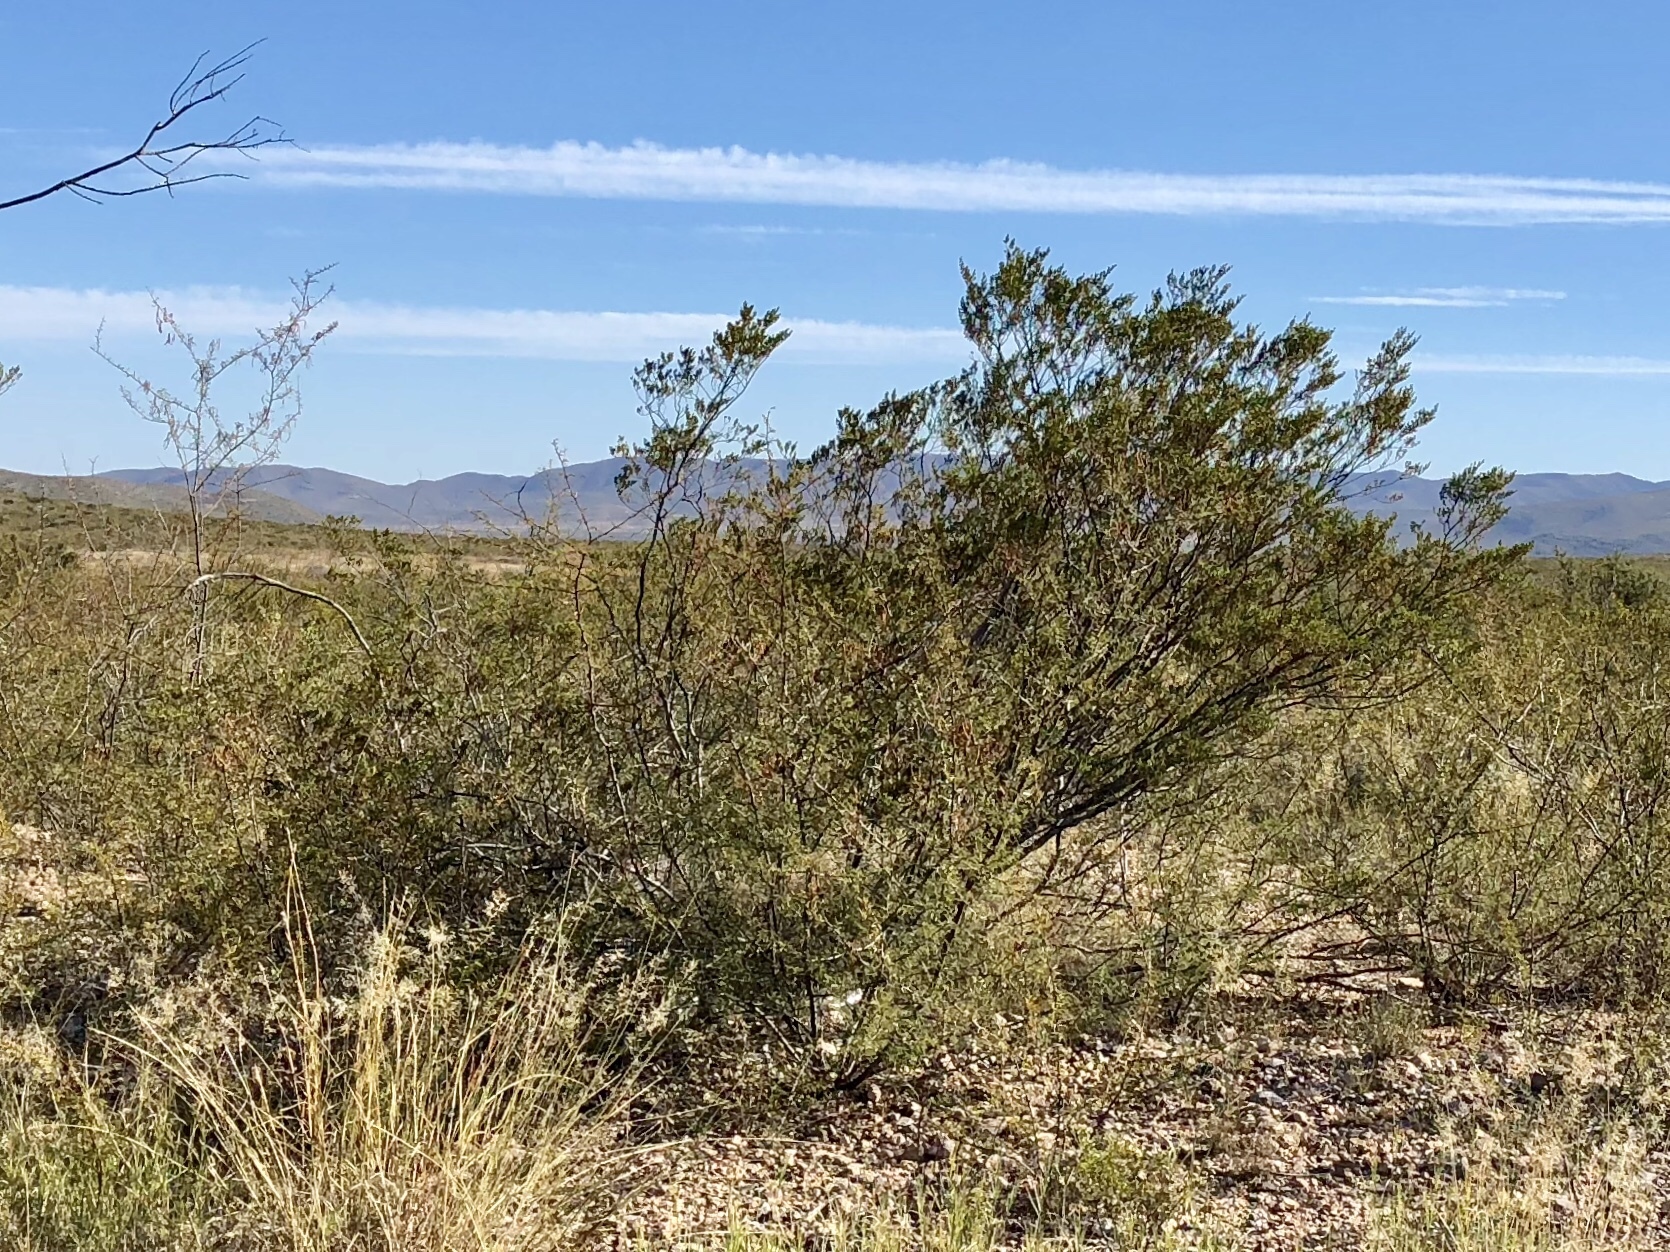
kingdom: Plantae
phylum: Tracheophyta
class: Magnoliopsida
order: Zygophyllales
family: Zygophyllaceae
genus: Larrea
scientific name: Larrea tridentata
